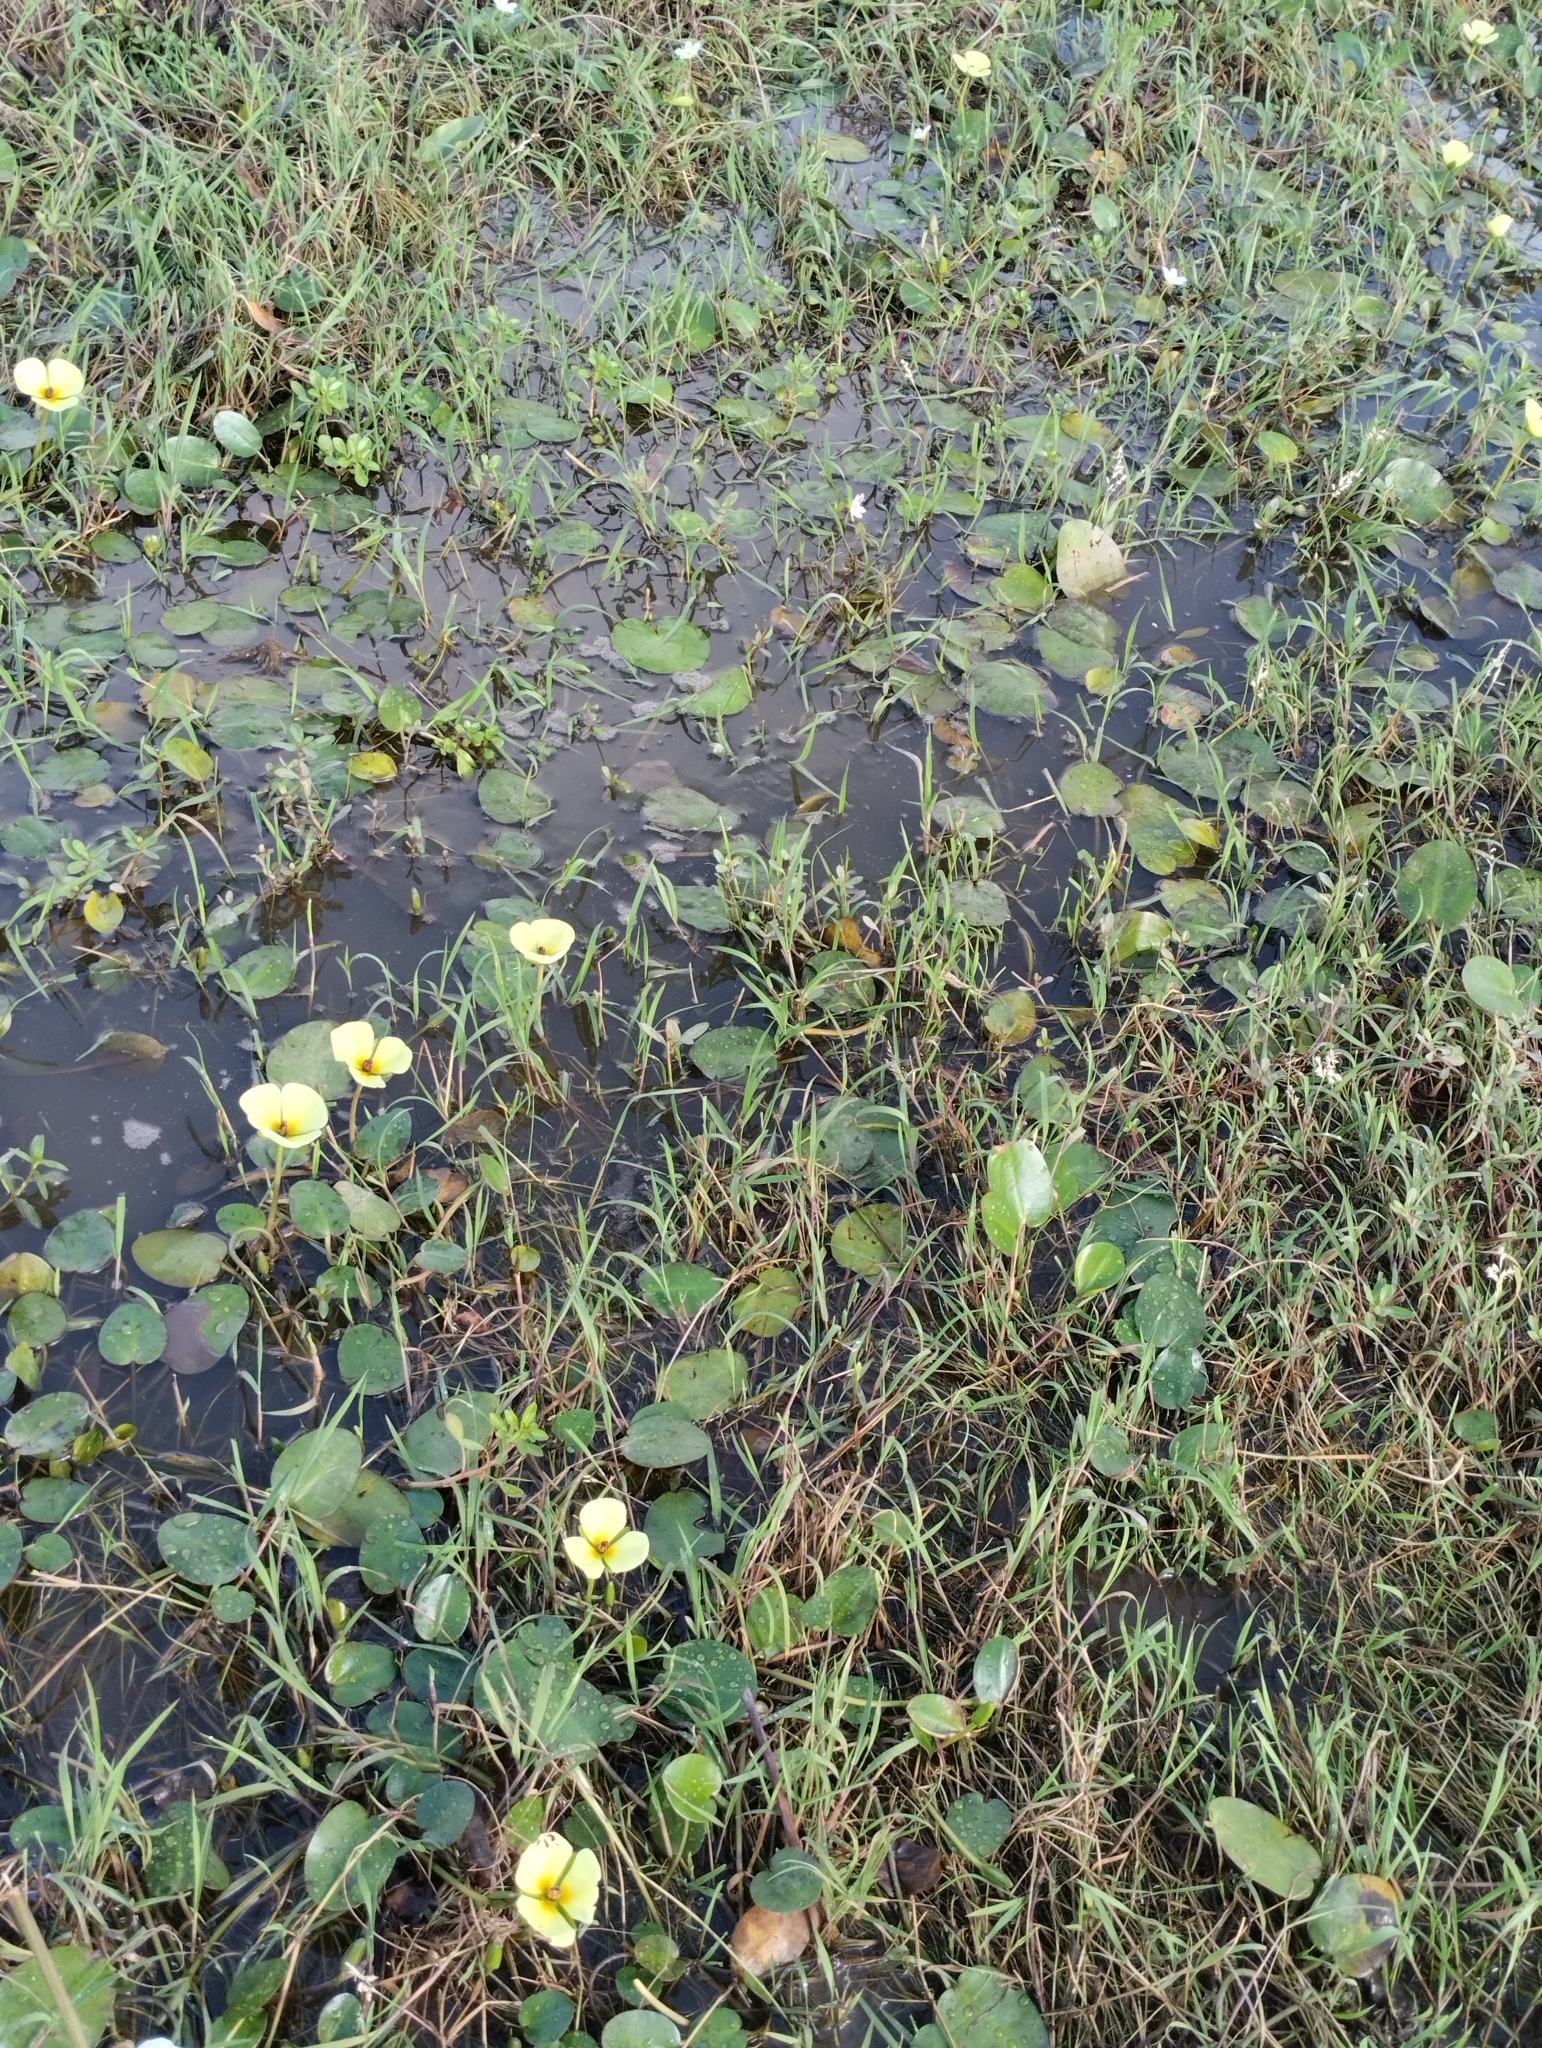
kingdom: Plantae
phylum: Tracheophyta
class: Liliopsida
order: Alismatales
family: Alismataceae
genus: Hydrocleys
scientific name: Hydrocleys nymphoides
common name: Water-poppy
